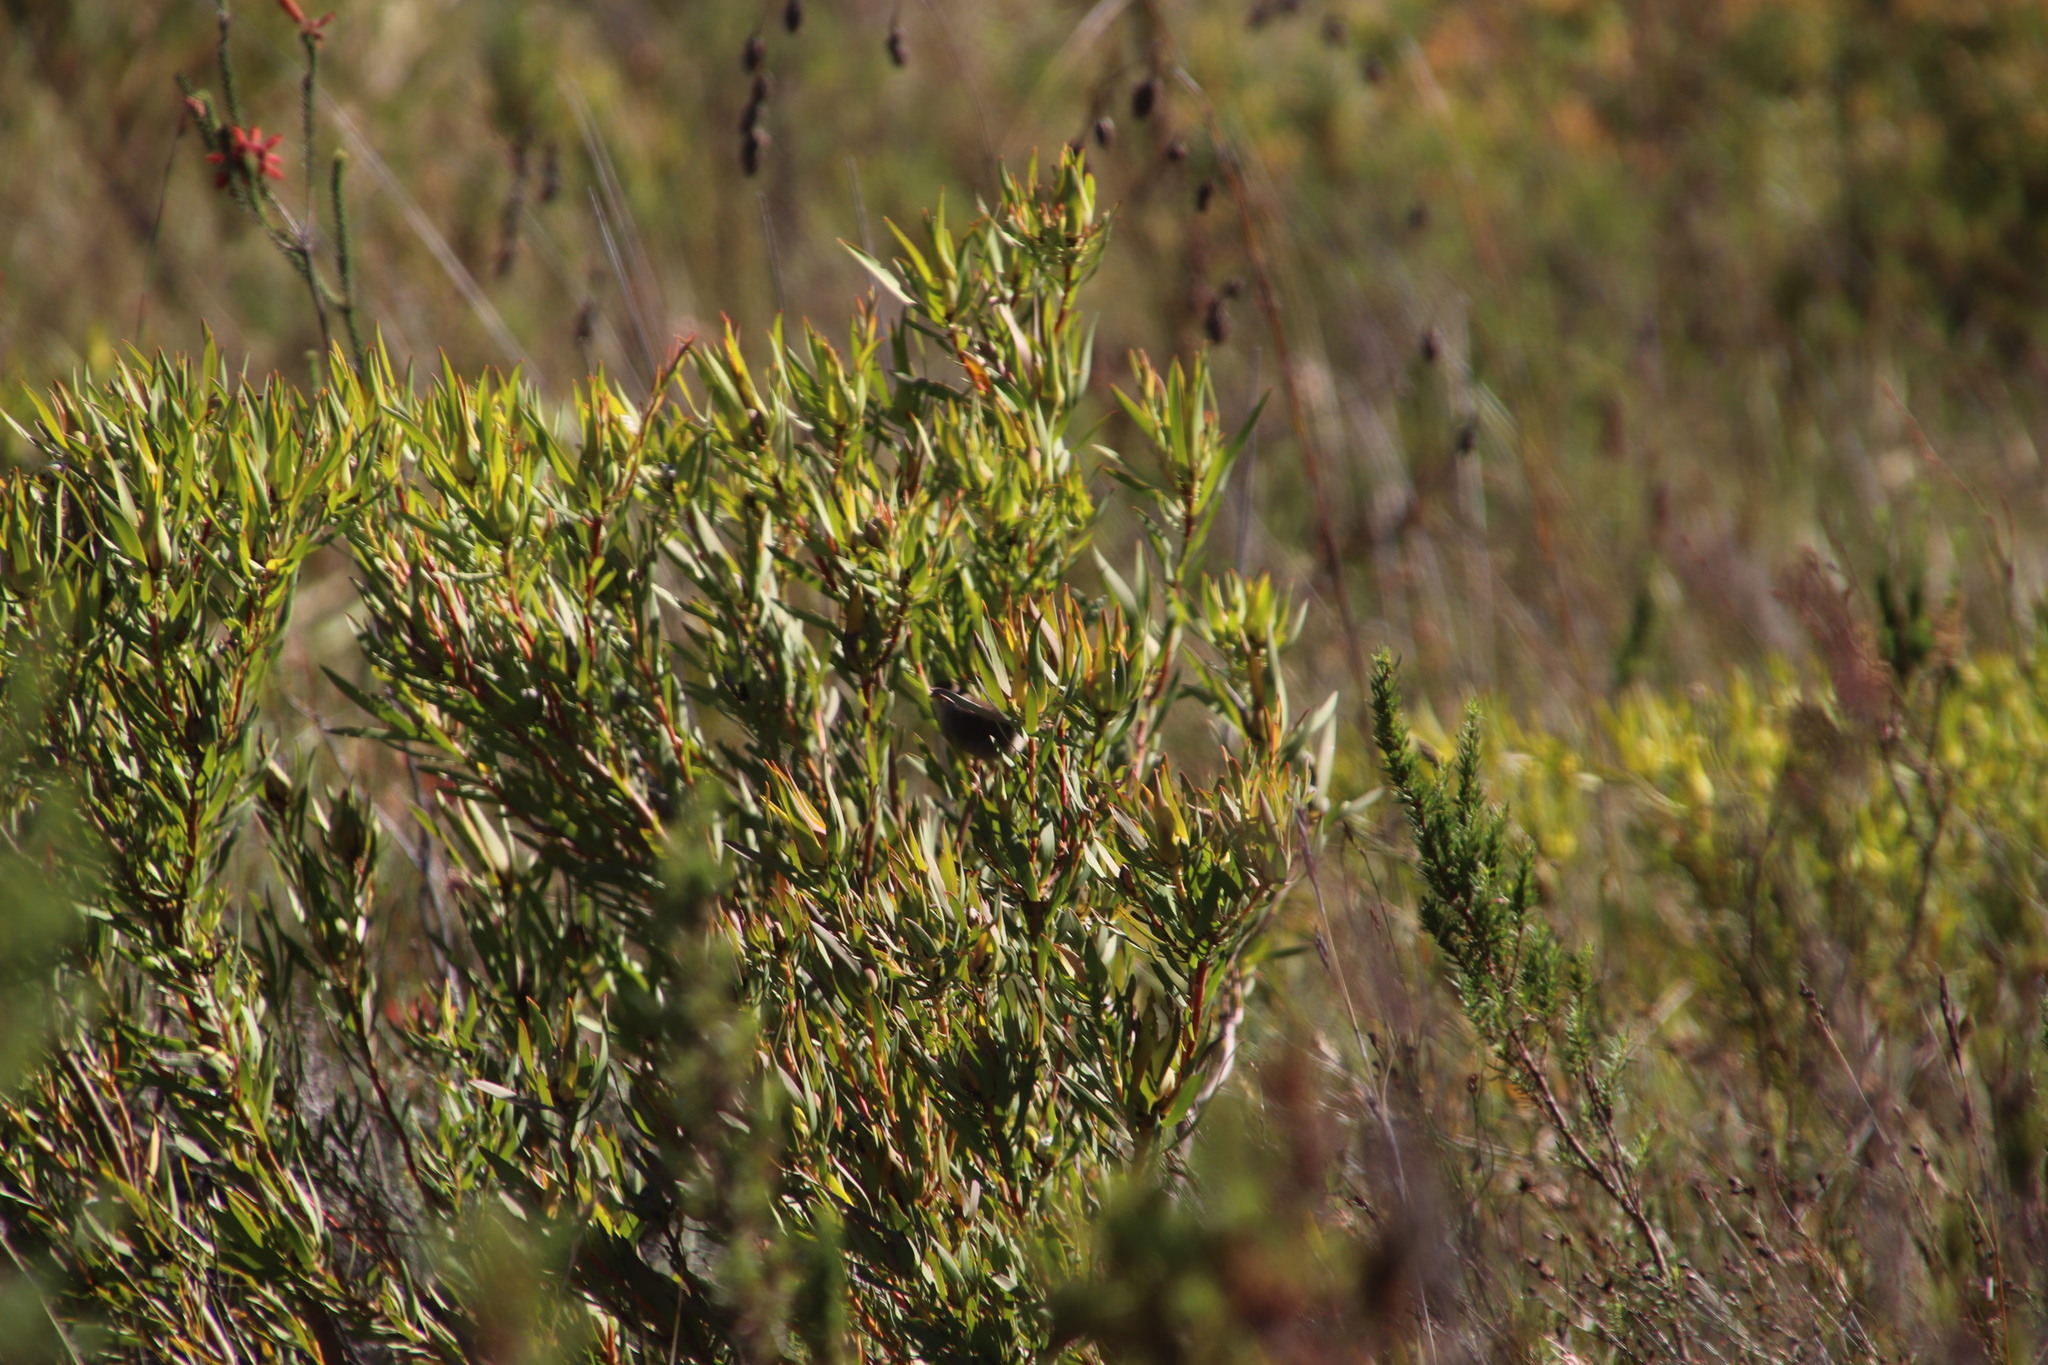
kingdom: Plantae
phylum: Tracheophyta
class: Magnoliopsida
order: Proteales
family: Proteaceae
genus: Leucadendron
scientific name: Leucadendron salignum
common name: Common sunshine conebush
